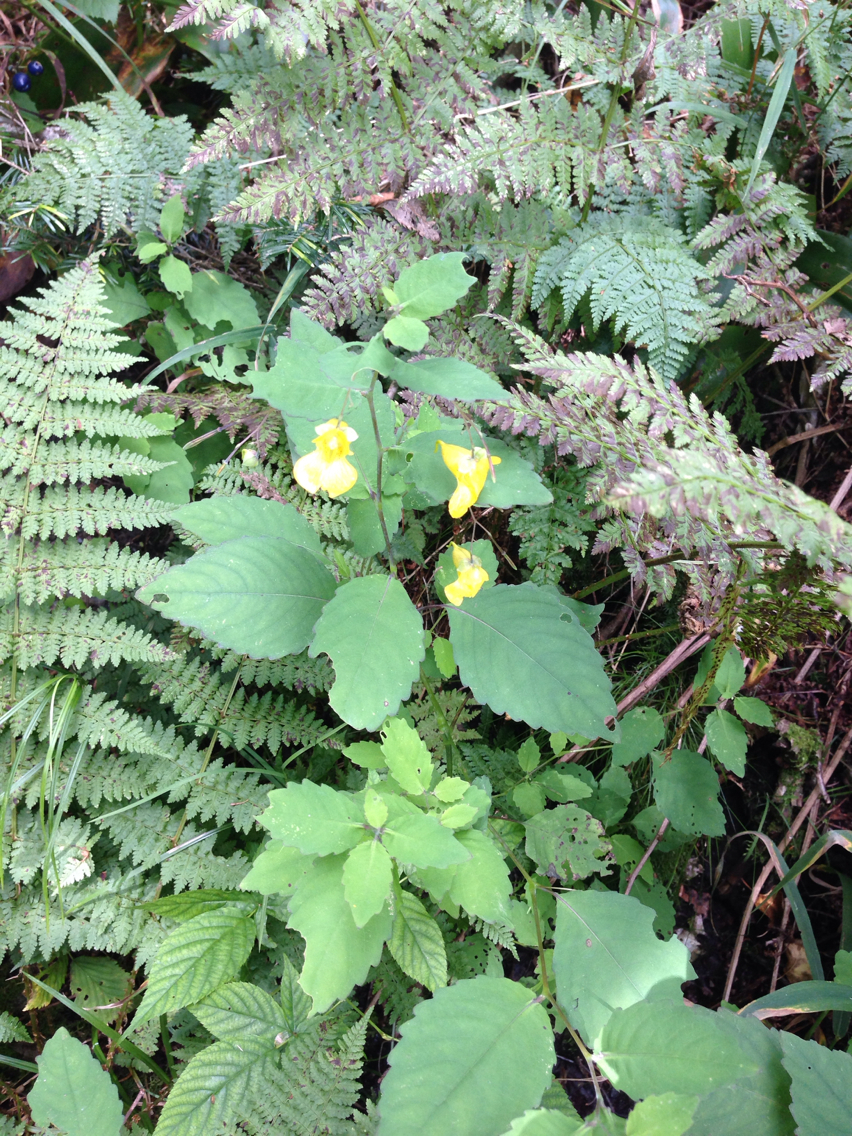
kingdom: Plantae
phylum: Tracheophyta
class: Magnoliopsida
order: Ericales
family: Balsaminaceae
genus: Impatiens
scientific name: Impatiens pallida
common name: Pale snapweed
